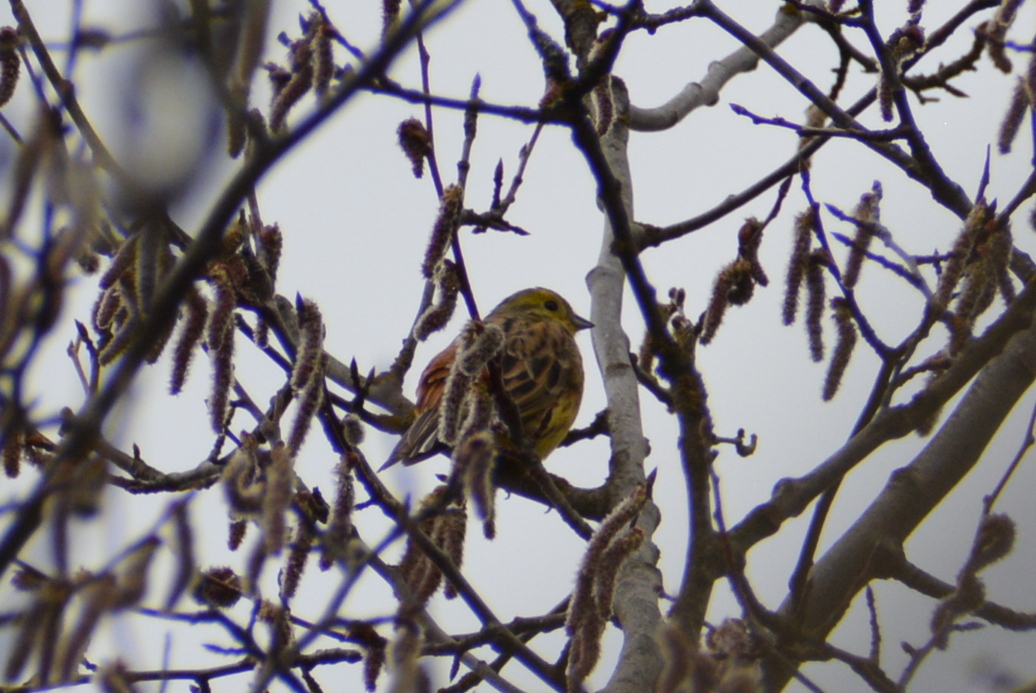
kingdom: Animalia
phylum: Chordata
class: Aves
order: Passeriformes
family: Emberizidae
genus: Emberiza
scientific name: Emberiza citrinella
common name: Yellowhammer
